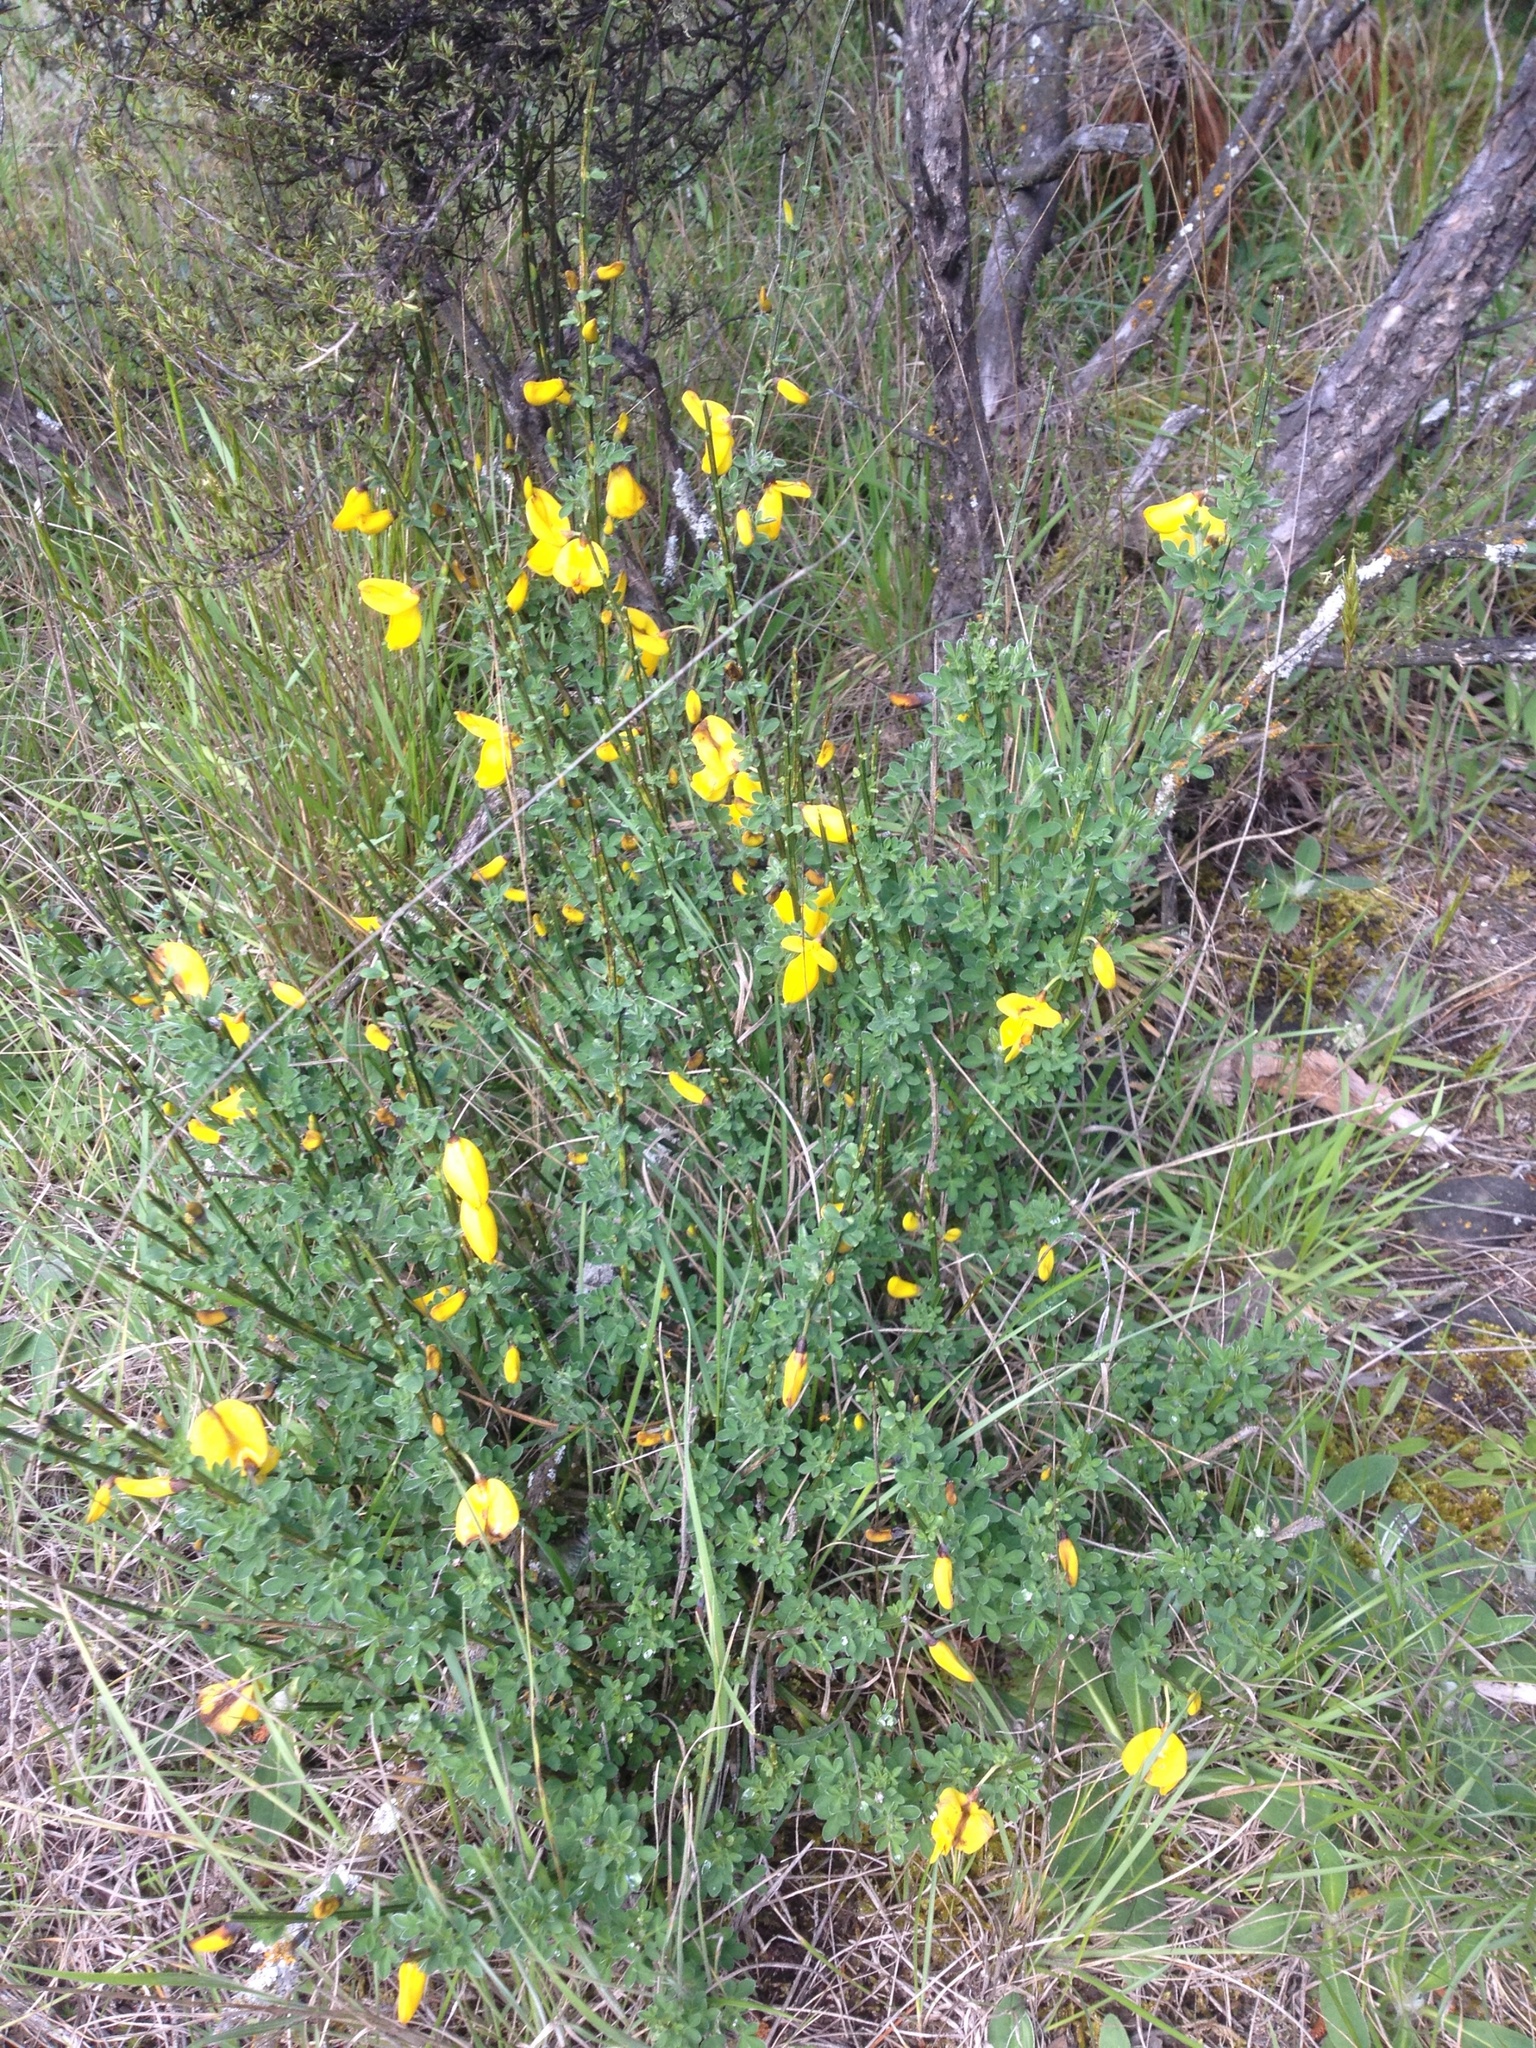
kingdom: Plantae
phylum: Tracheophyta
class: Magnoliopsida
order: Fabales
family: Fabaceae
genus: Cytisus
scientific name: Cytisus scoparius
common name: Scotch broom
